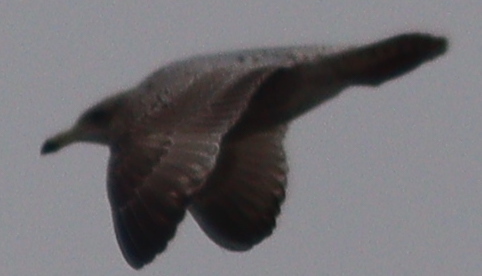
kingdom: Animalia
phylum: Chordata
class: Aves
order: Charadriiformes
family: Laridae
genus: Larus
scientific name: Larus argentatus
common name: Herring gull
